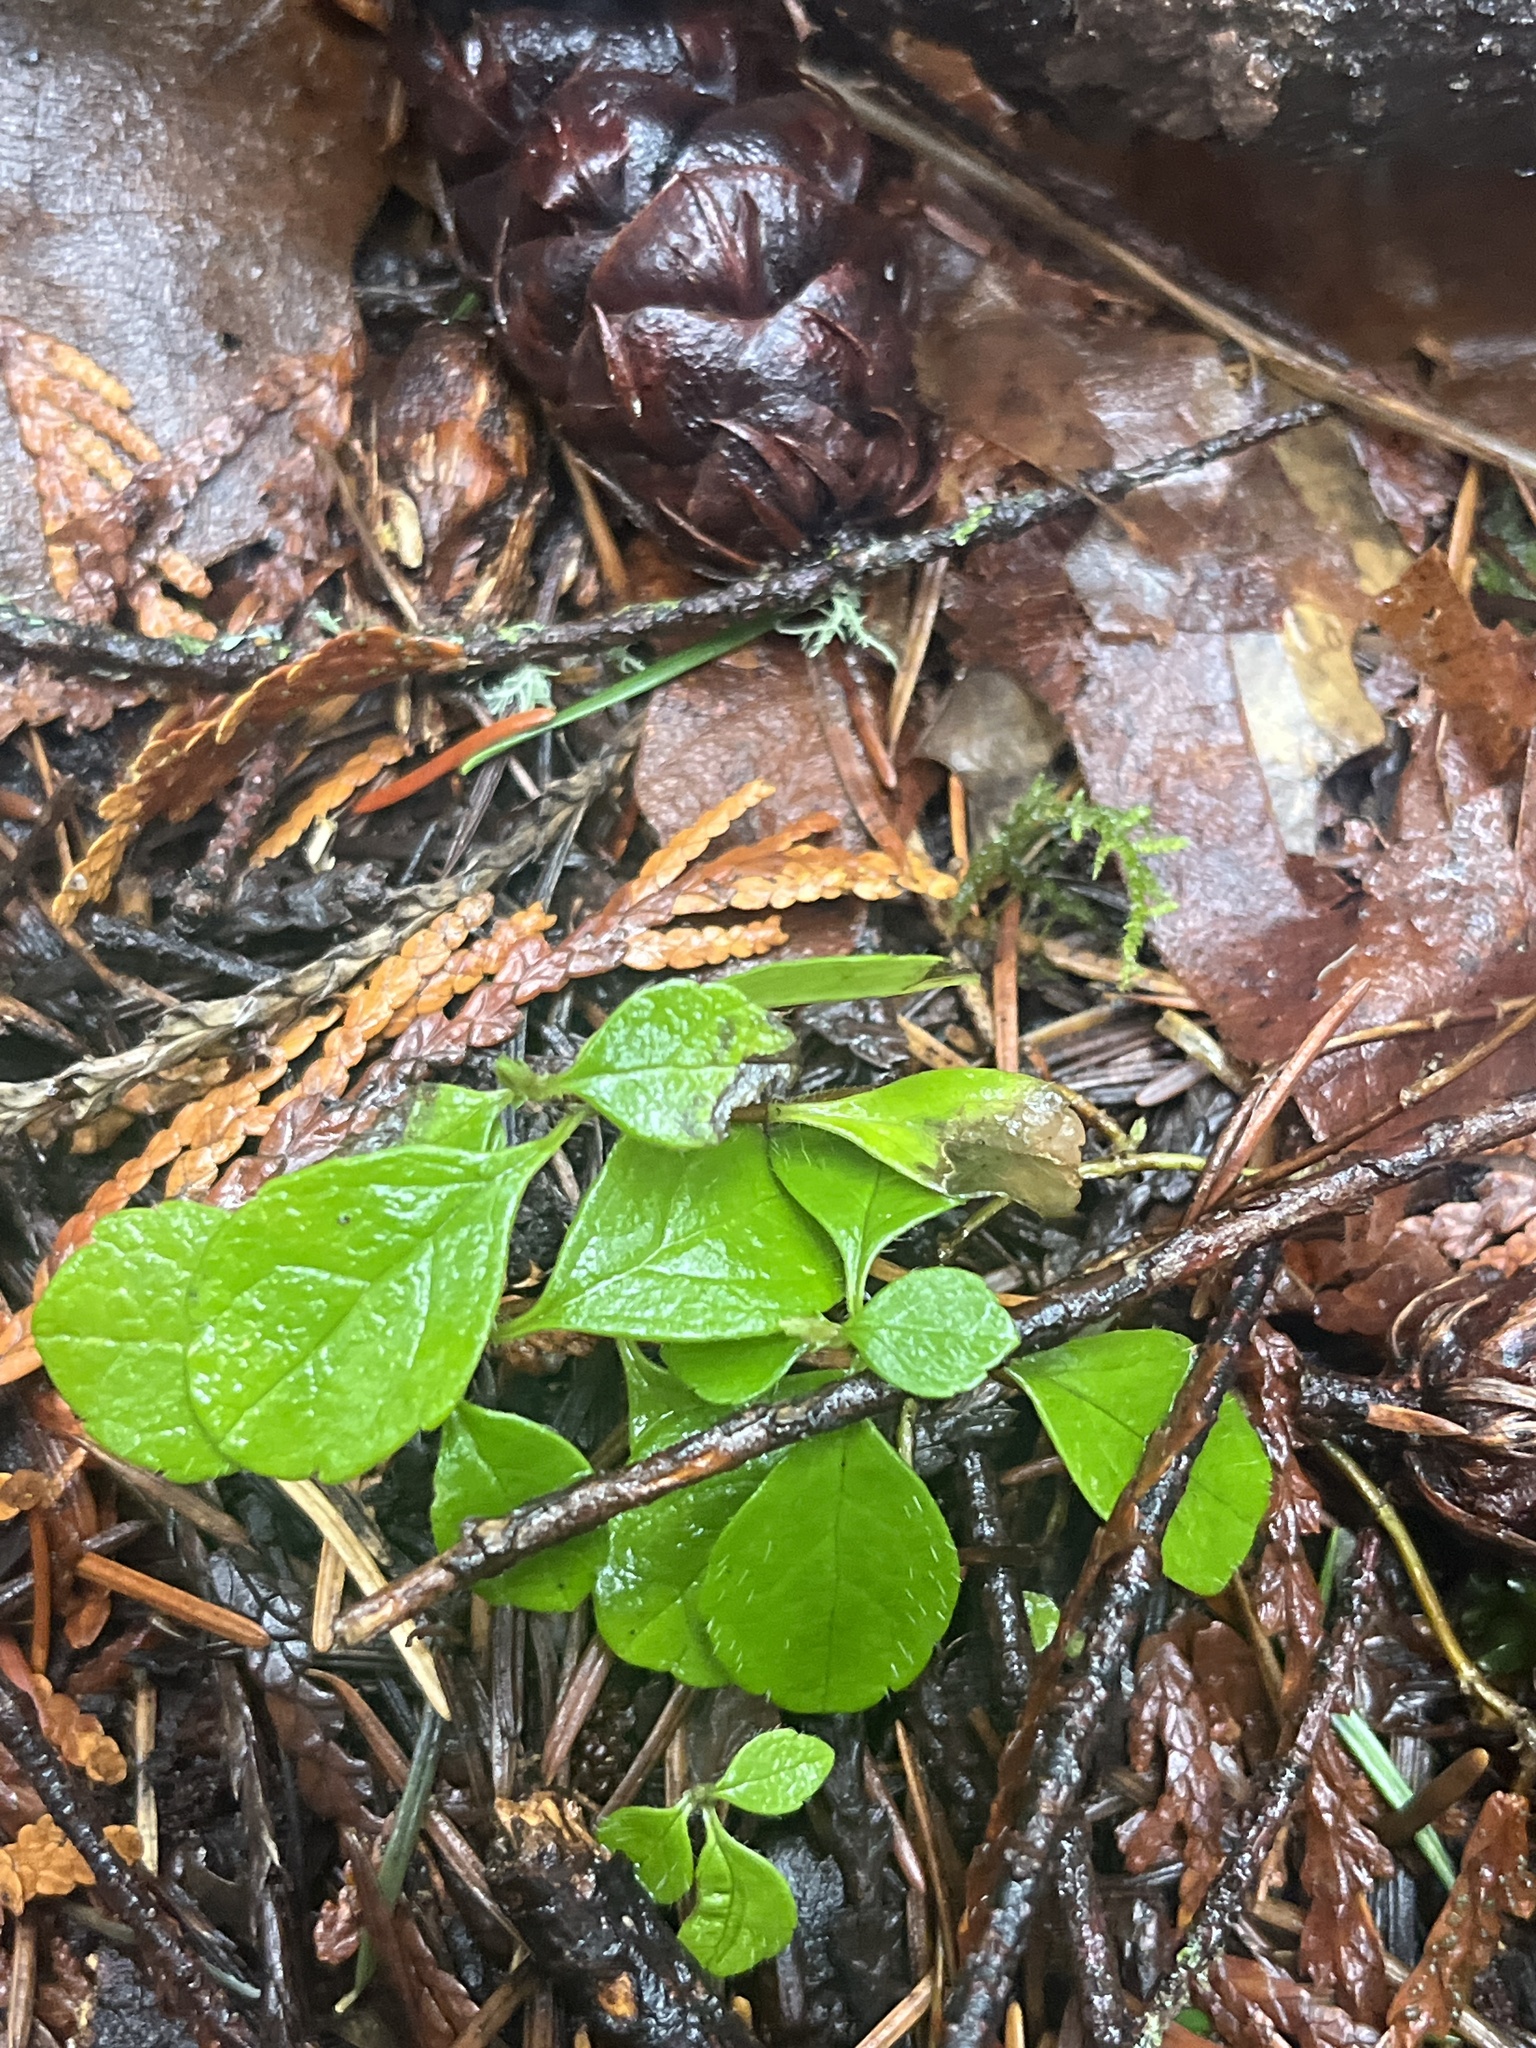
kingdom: Plantae
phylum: Tracheophyta
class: Magnoliopsida
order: Dipsacales
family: Caprifoliaceae
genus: Linnaea
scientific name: Linnaea borealis
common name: Twinflower
